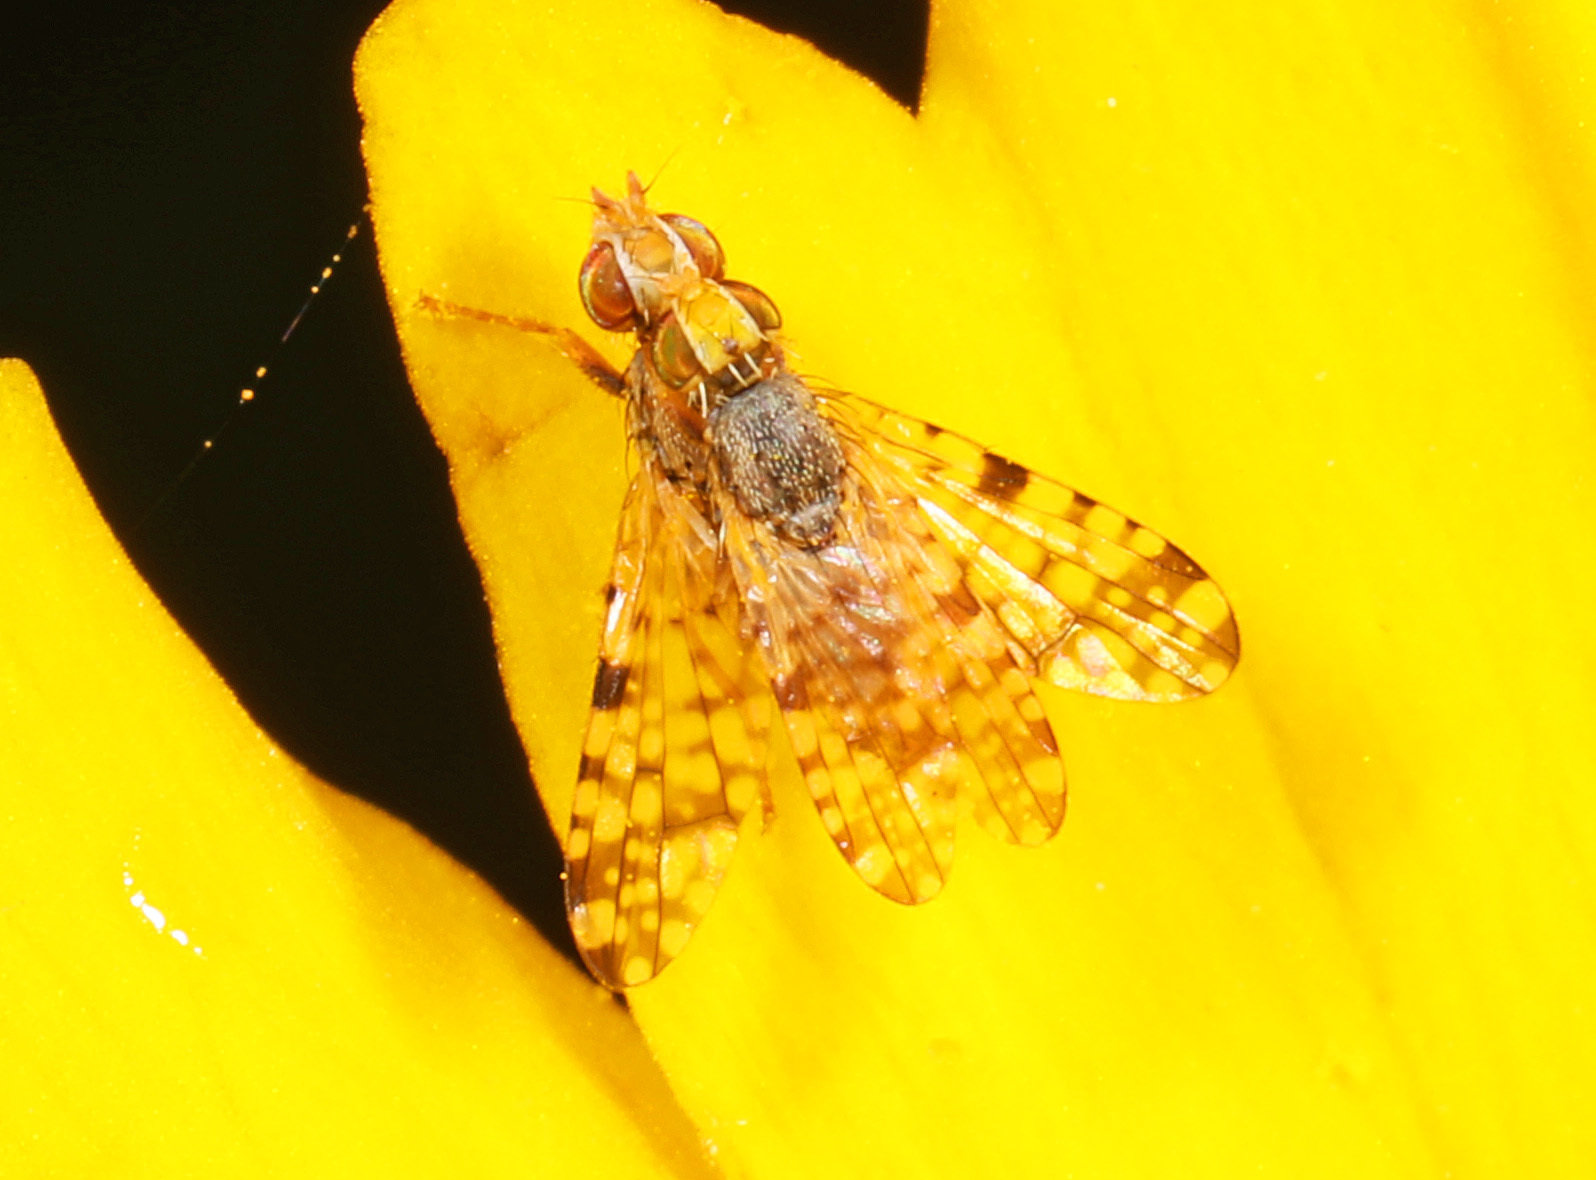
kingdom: Animalia
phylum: Arthropoda
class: Insecta
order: Diptera
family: Tephritidae
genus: Dioxyna
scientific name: Dioxyna picciola
